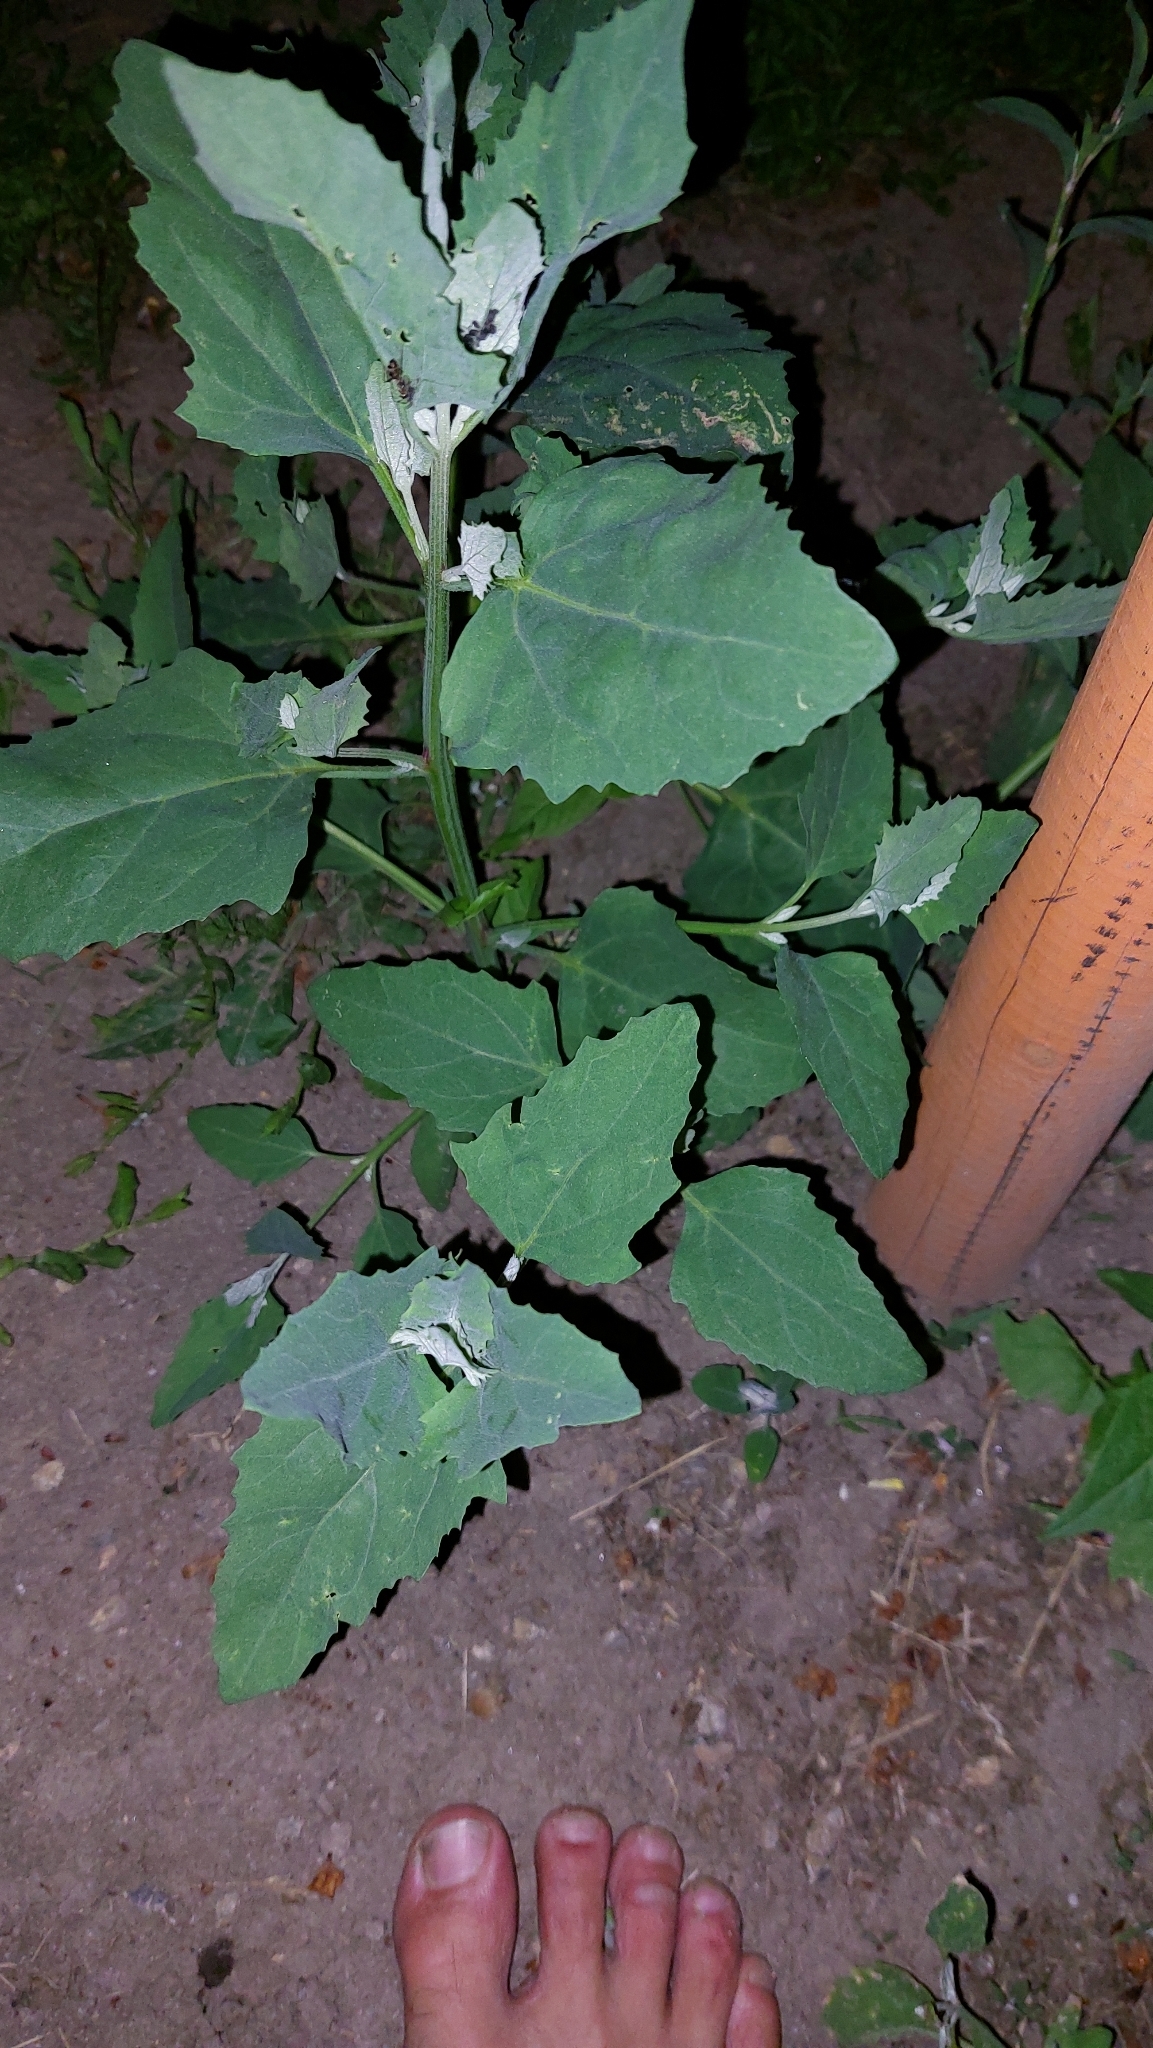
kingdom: Plantae
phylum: Tracheophyta
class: Magnoliopsida
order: Caryophyllales
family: Amaranthaceae
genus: Chenopodium
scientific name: Chenopodium album
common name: Fat-hen
